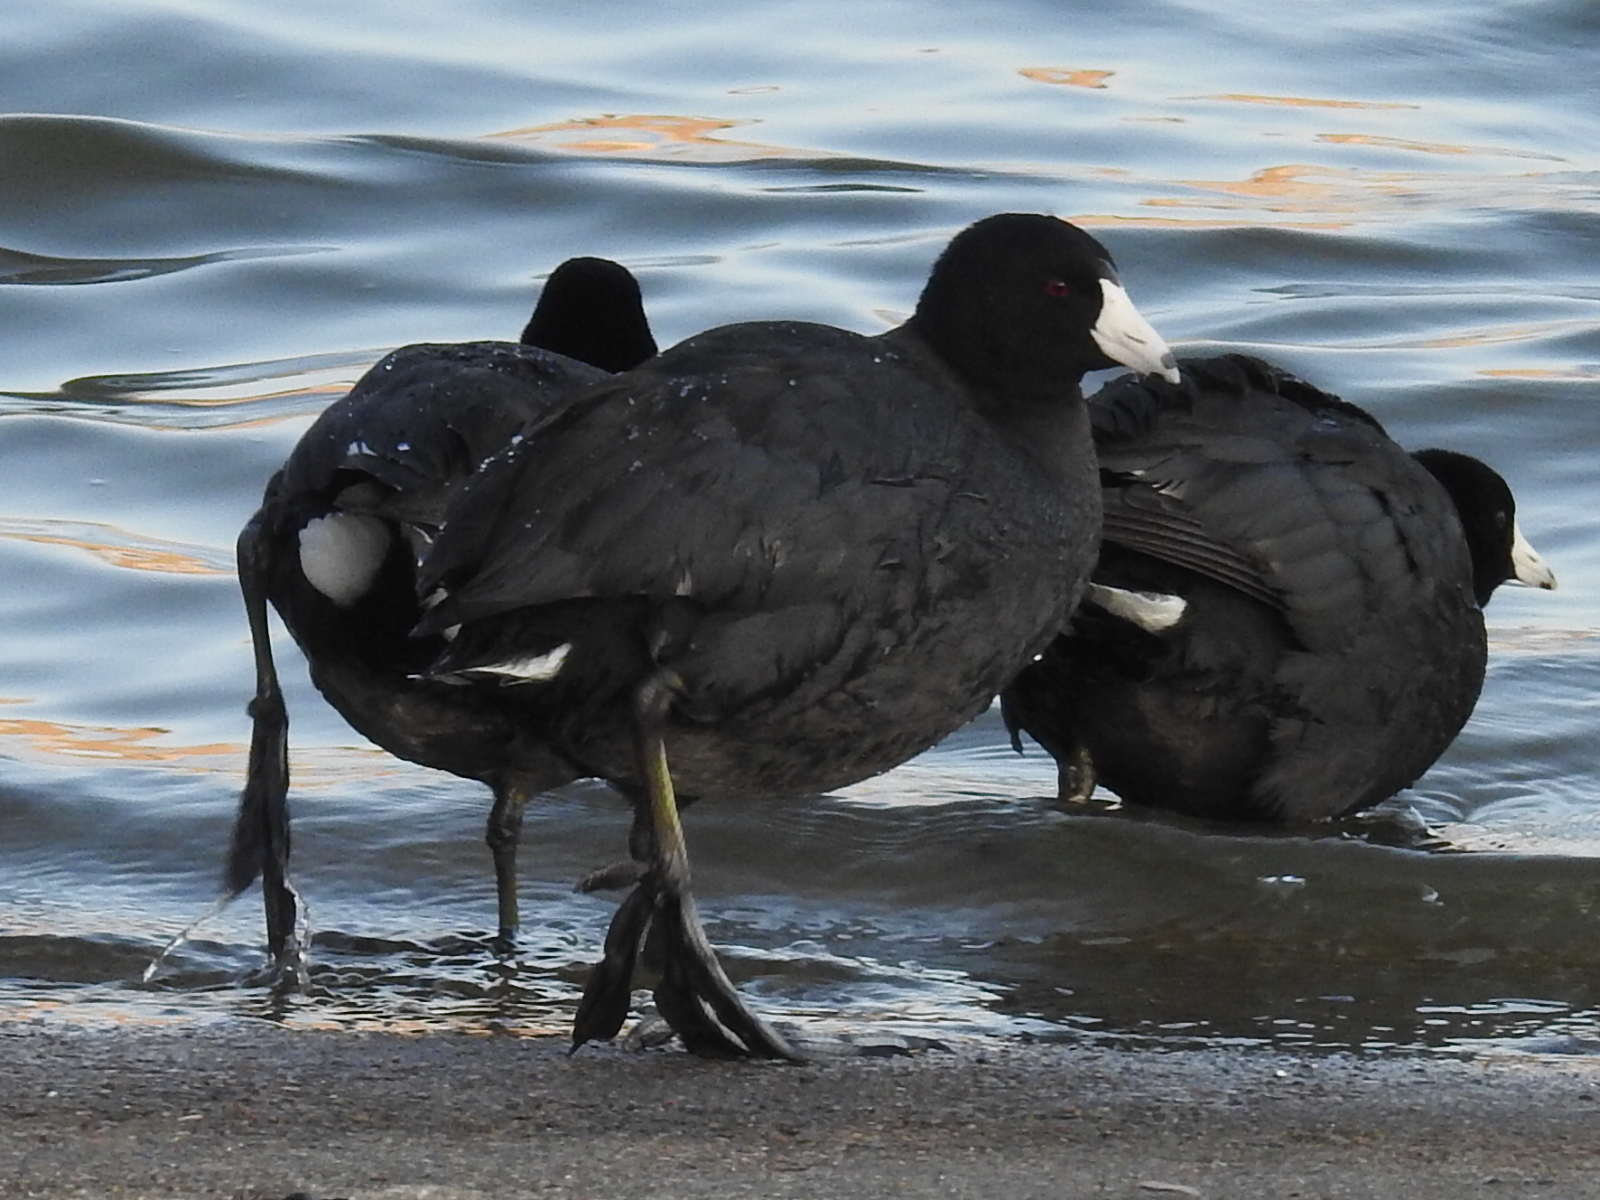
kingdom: Animalia
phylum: Chordata
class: Aves
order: Gruiformes
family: Rallidae
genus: Fulica
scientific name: Fulica americana
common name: American coot
